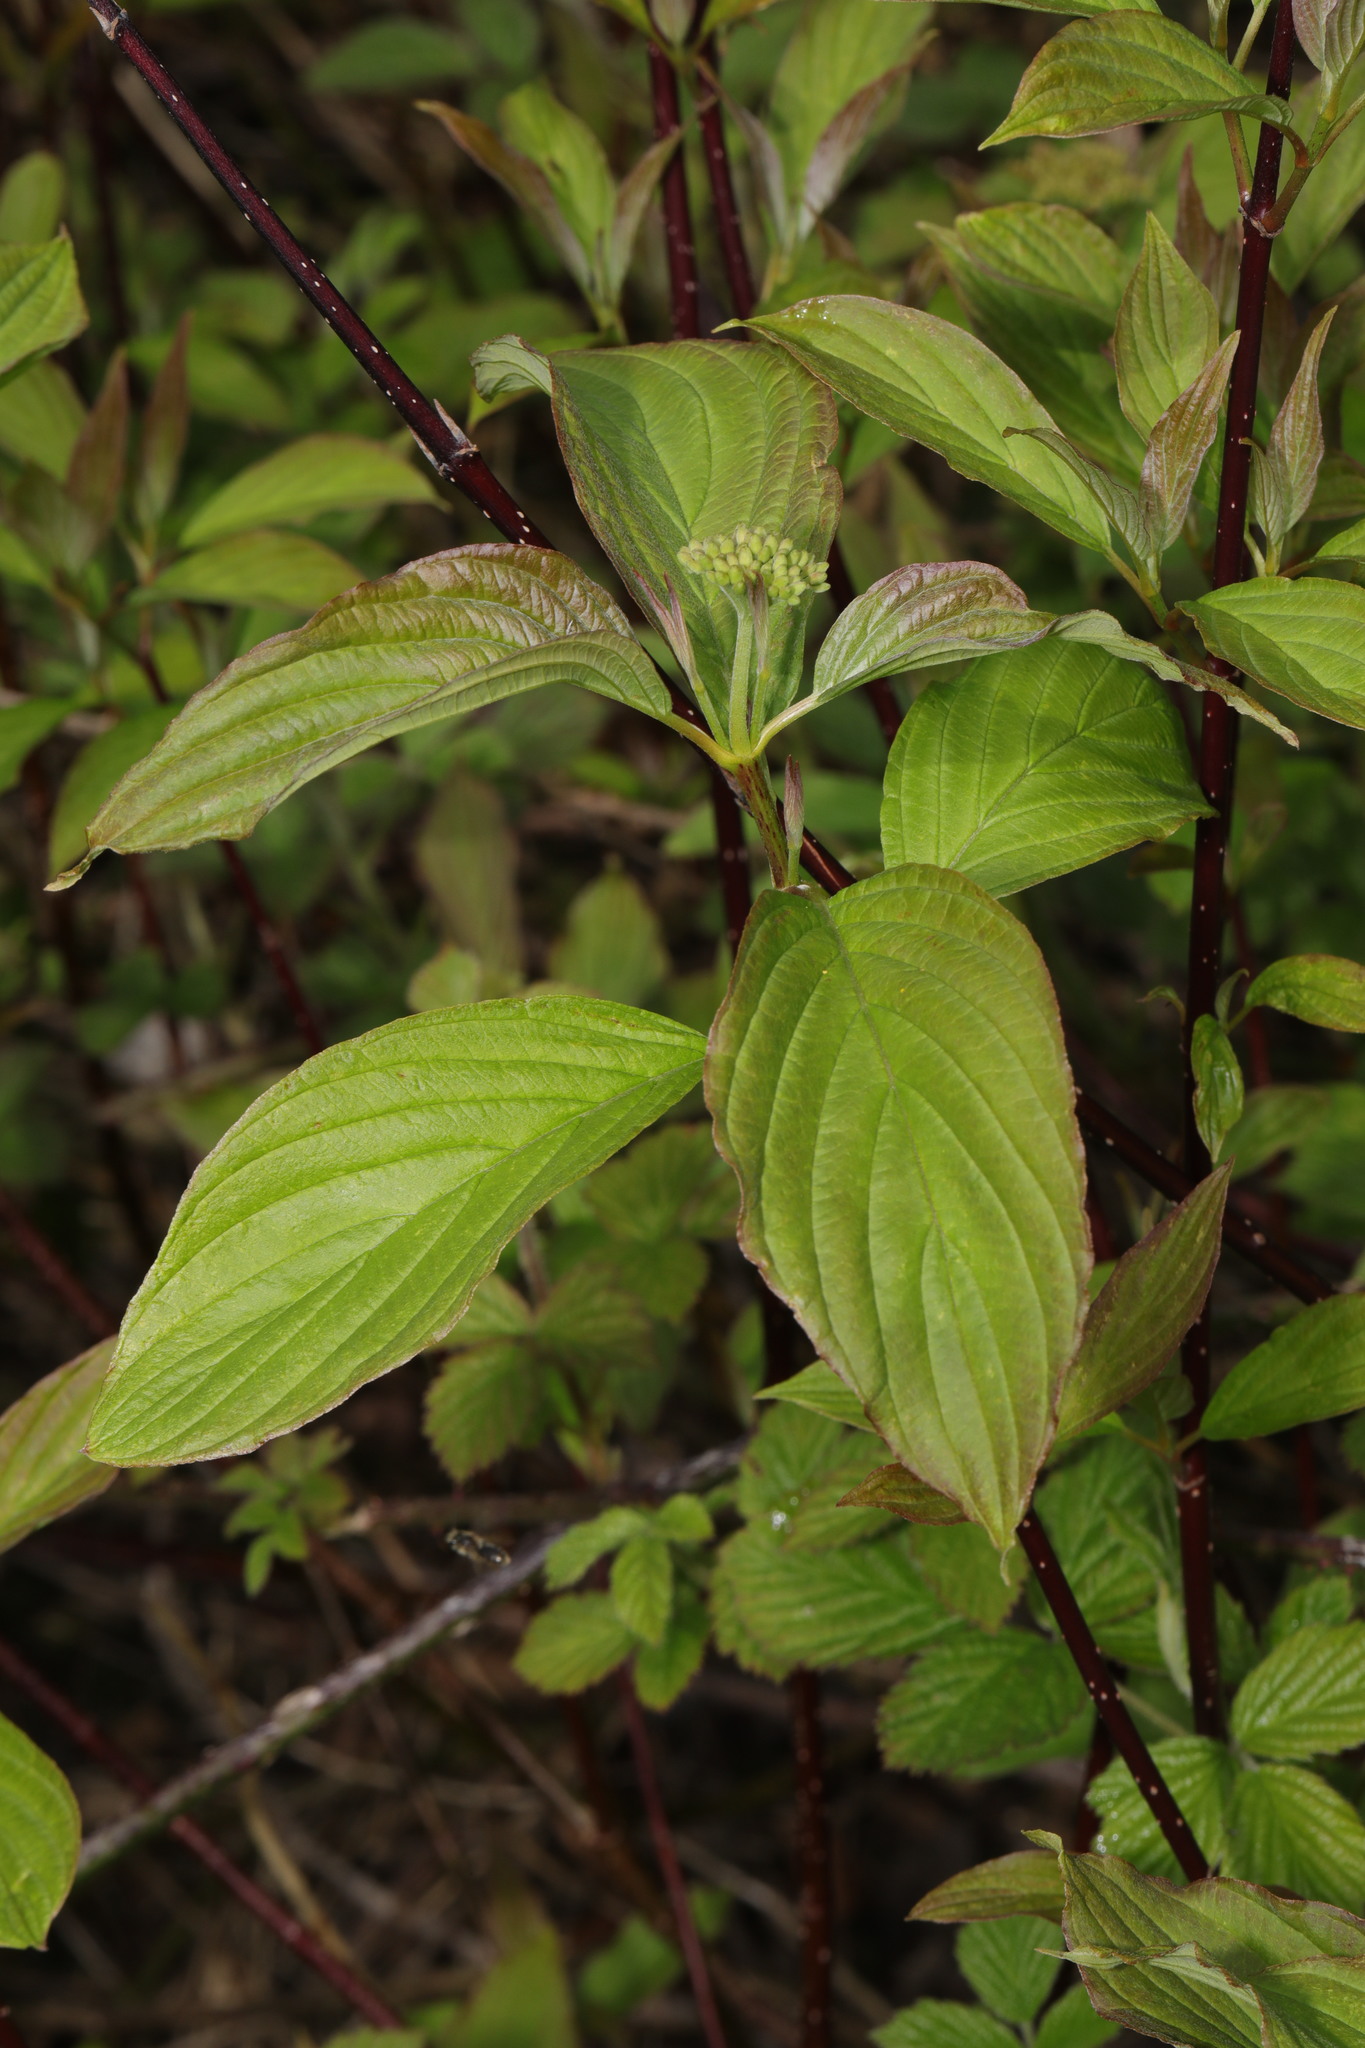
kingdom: Plantae
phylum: Tracheophyta
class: Magnoliopsida
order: Cornales
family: Cornaceae
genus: Cornus
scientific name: Cornus sanguinea
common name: Dogwood
